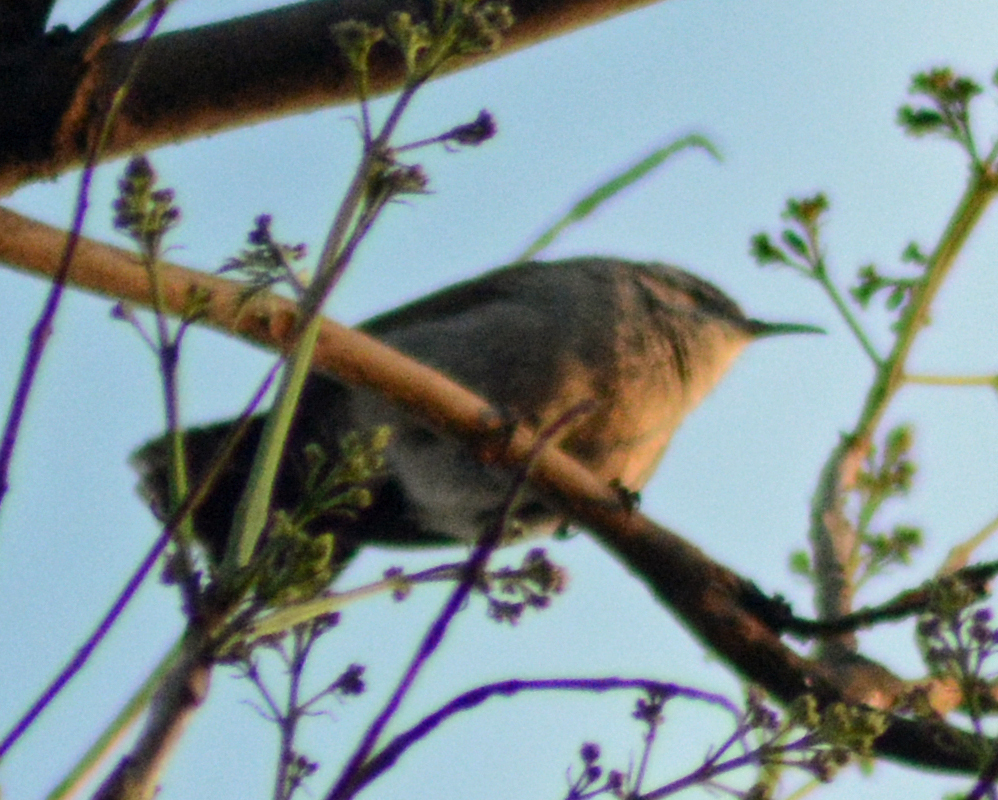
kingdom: Animalia
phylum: Chordata
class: Aves
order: Passeriformes
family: Troglodytidae
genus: Thryomanes
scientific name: Thryomanes bewickii
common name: Bewick's wren
